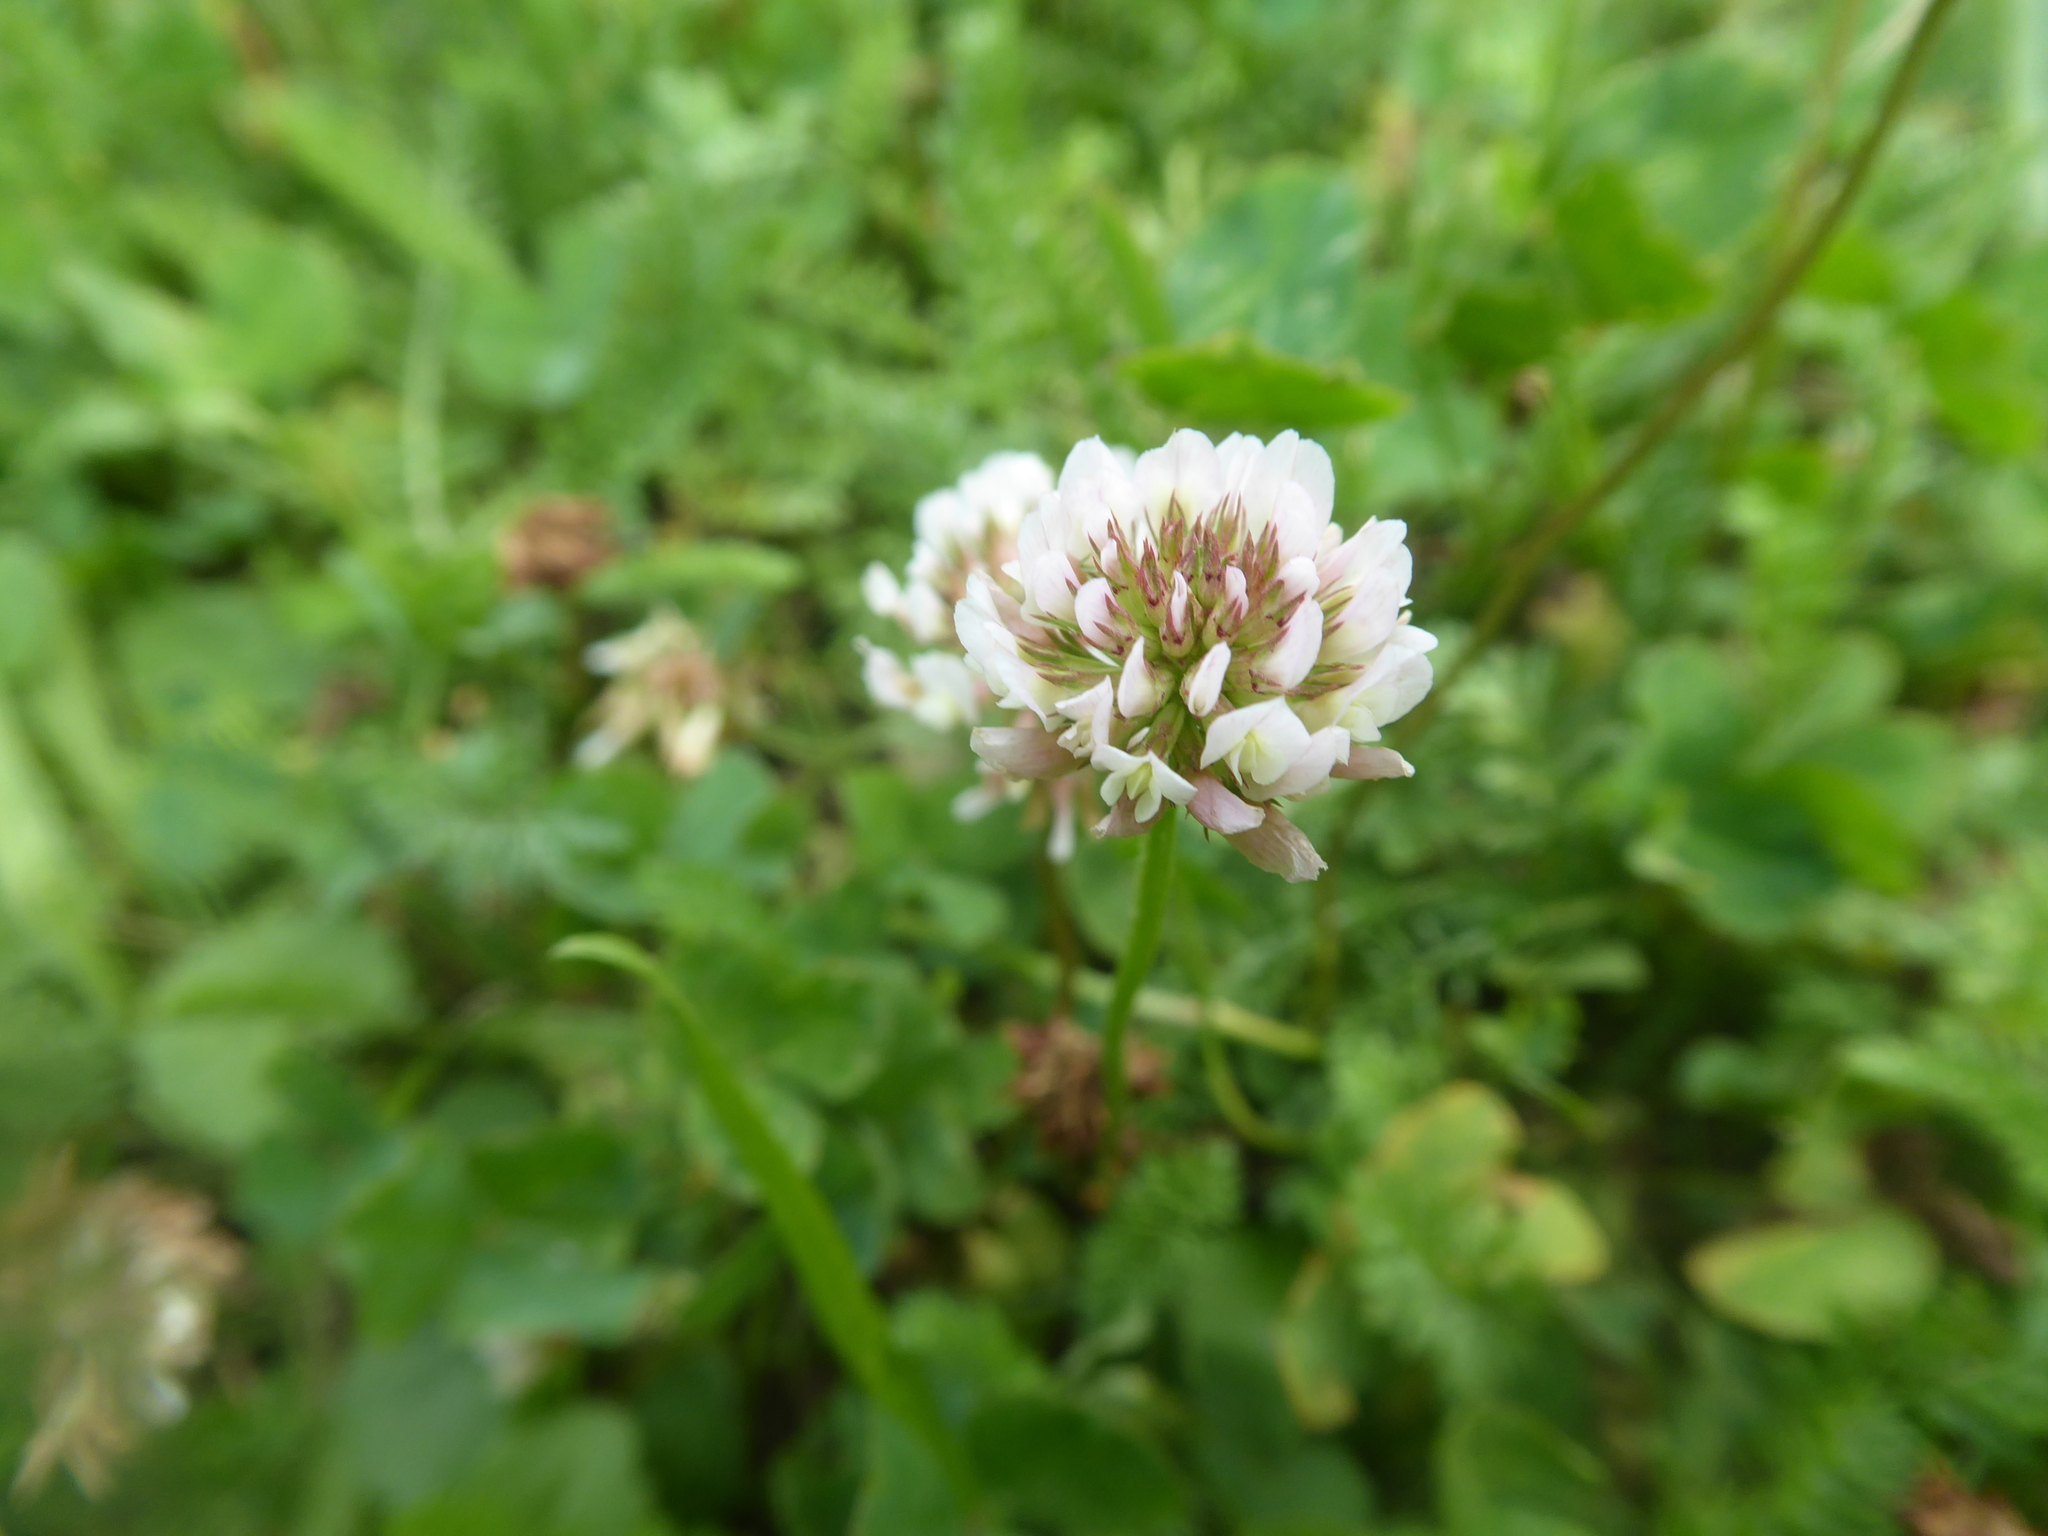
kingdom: Plantae
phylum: Tracheophyta
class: Magnoliopsida
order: Fabales
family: Fabaceae
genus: Trifolium
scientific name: Trifolium repens
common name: White clover
